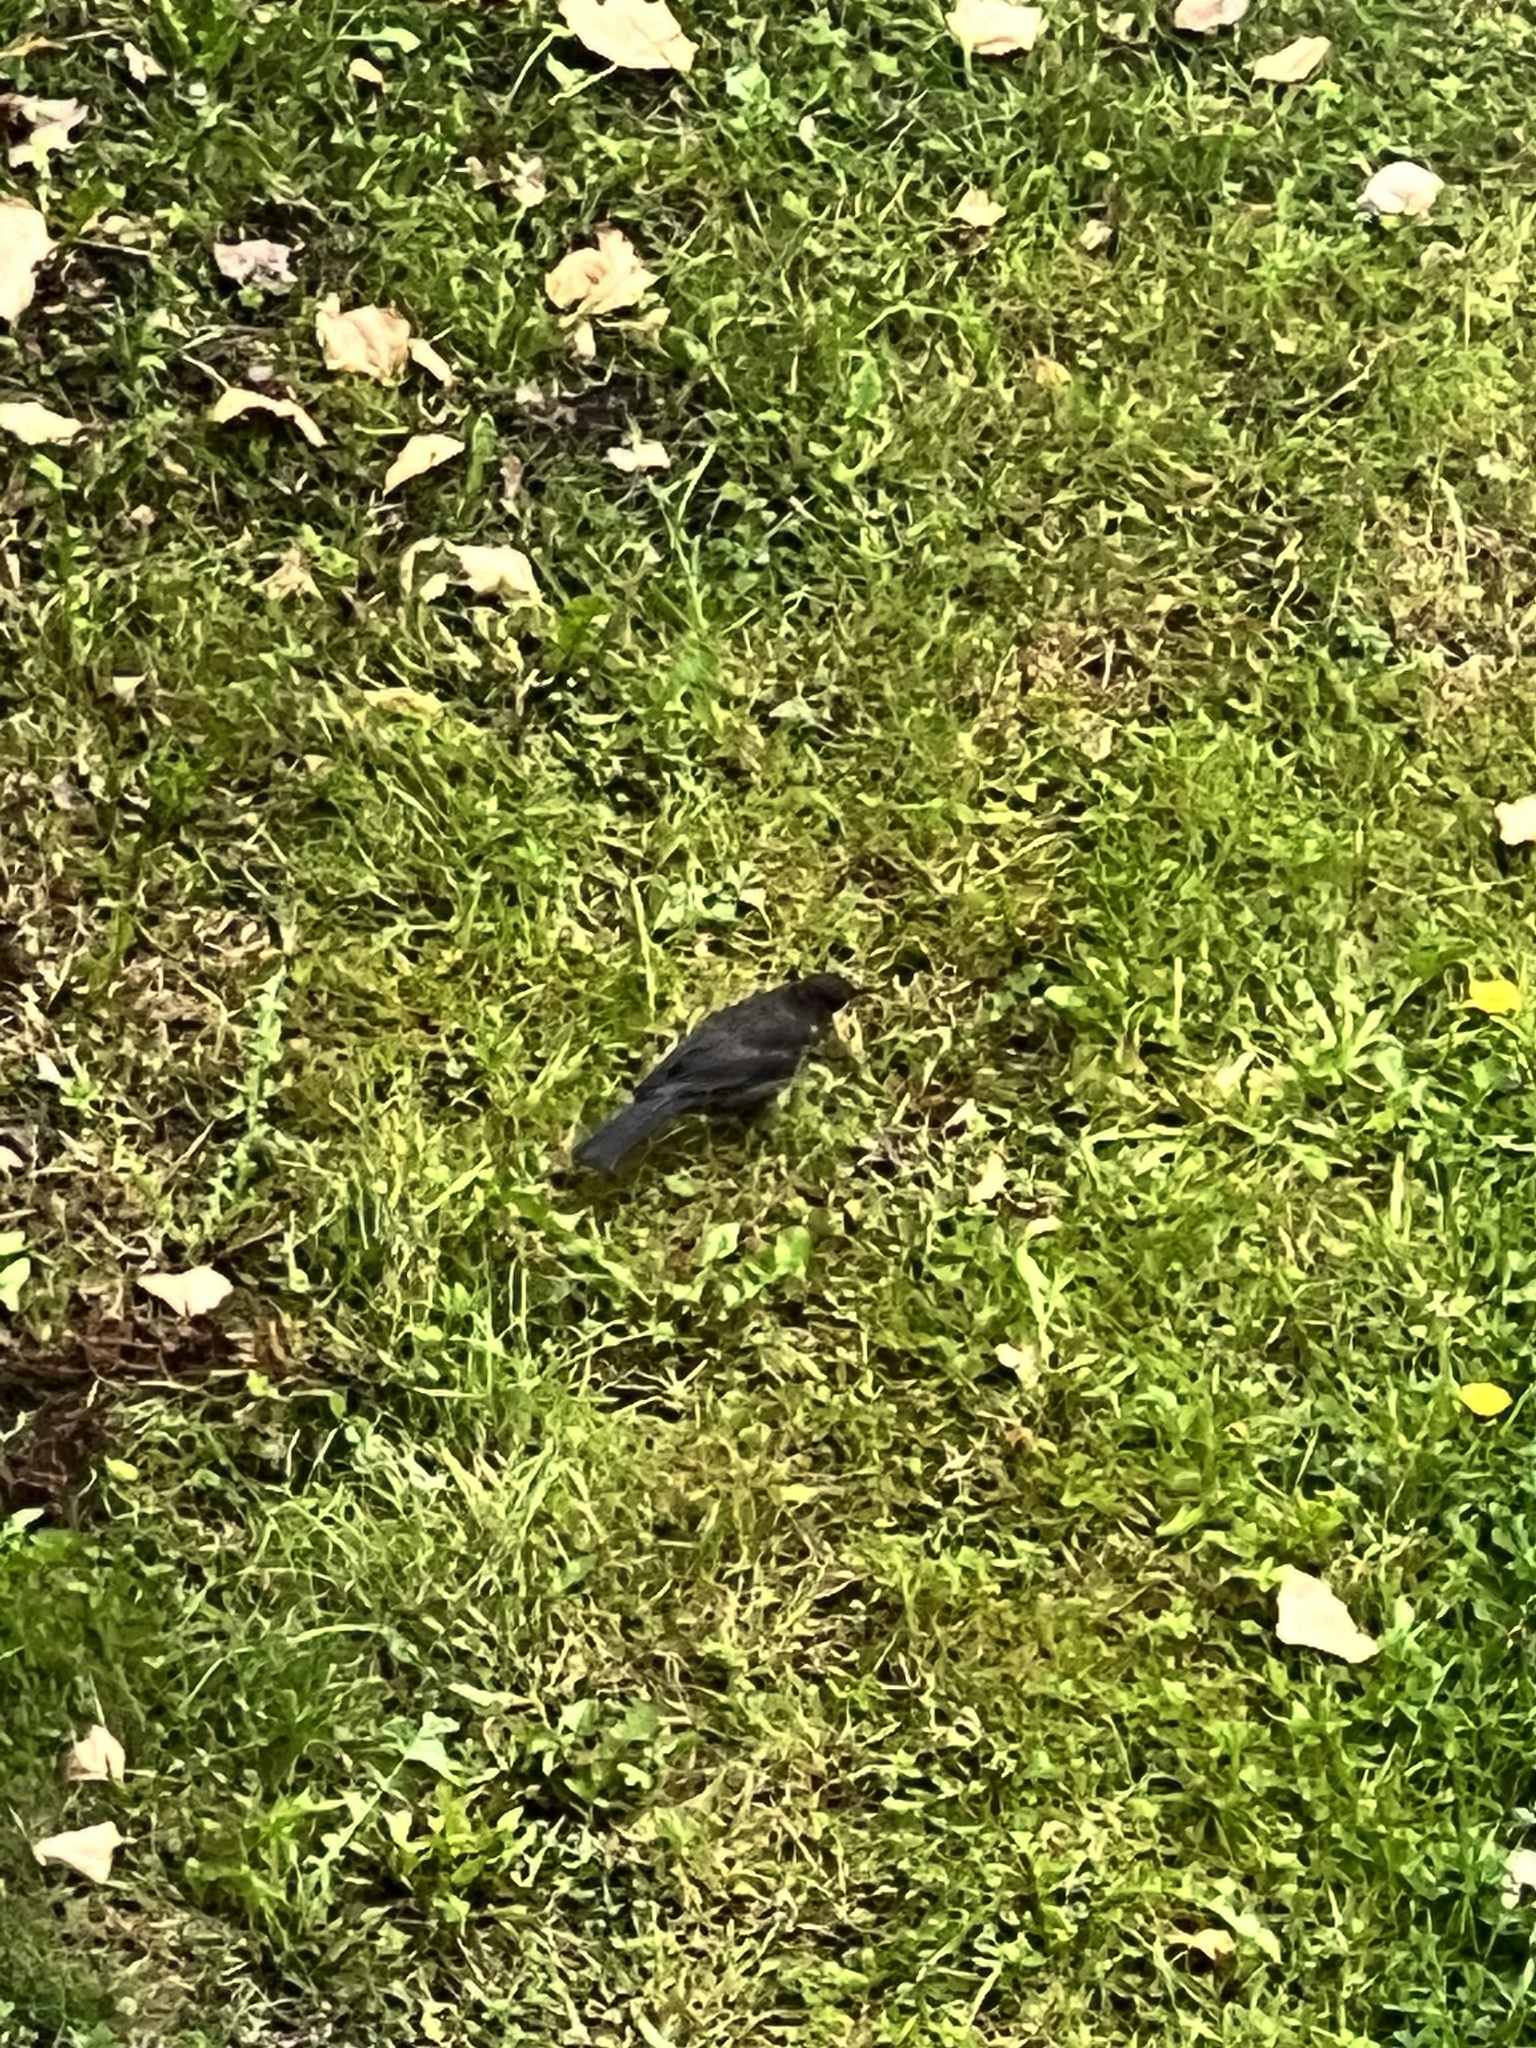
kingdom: Animalia
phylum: Chordata
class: Aves
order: Passeriformes
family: Turdidae
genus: Turdus
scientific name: Turdus merula
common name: Common blackbird
